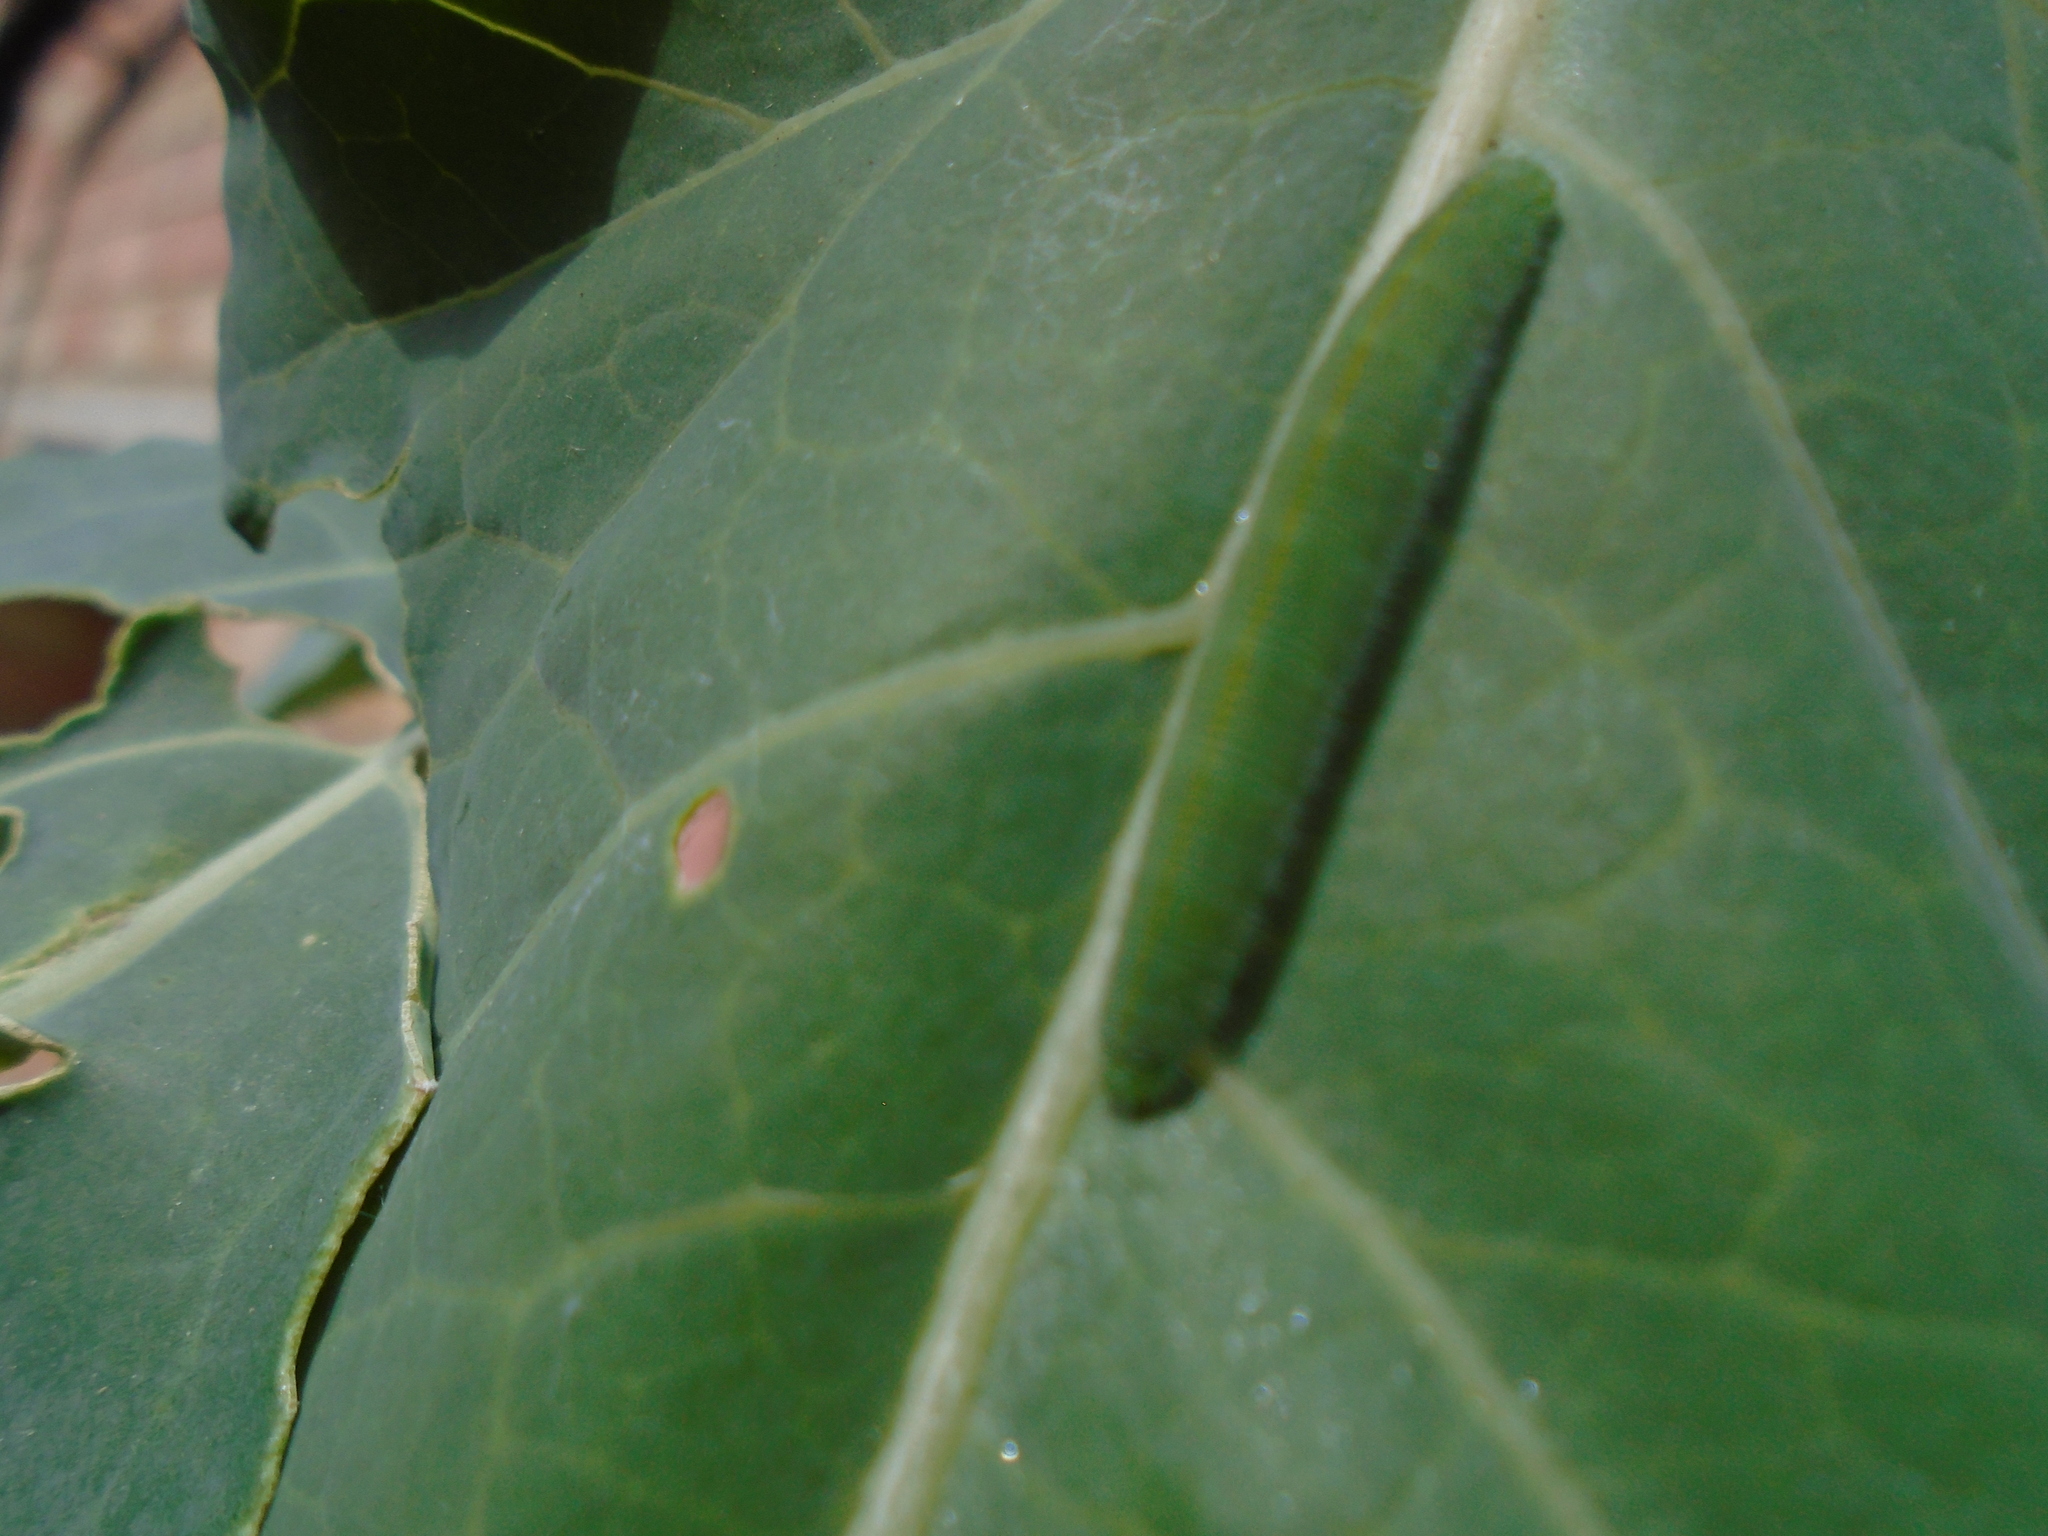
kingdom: Animalia
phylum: Arthropoda
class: Insecta
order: Lepidoptera
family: Pieridae
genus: Pieris
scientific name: Pieris rapae
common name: Small white
